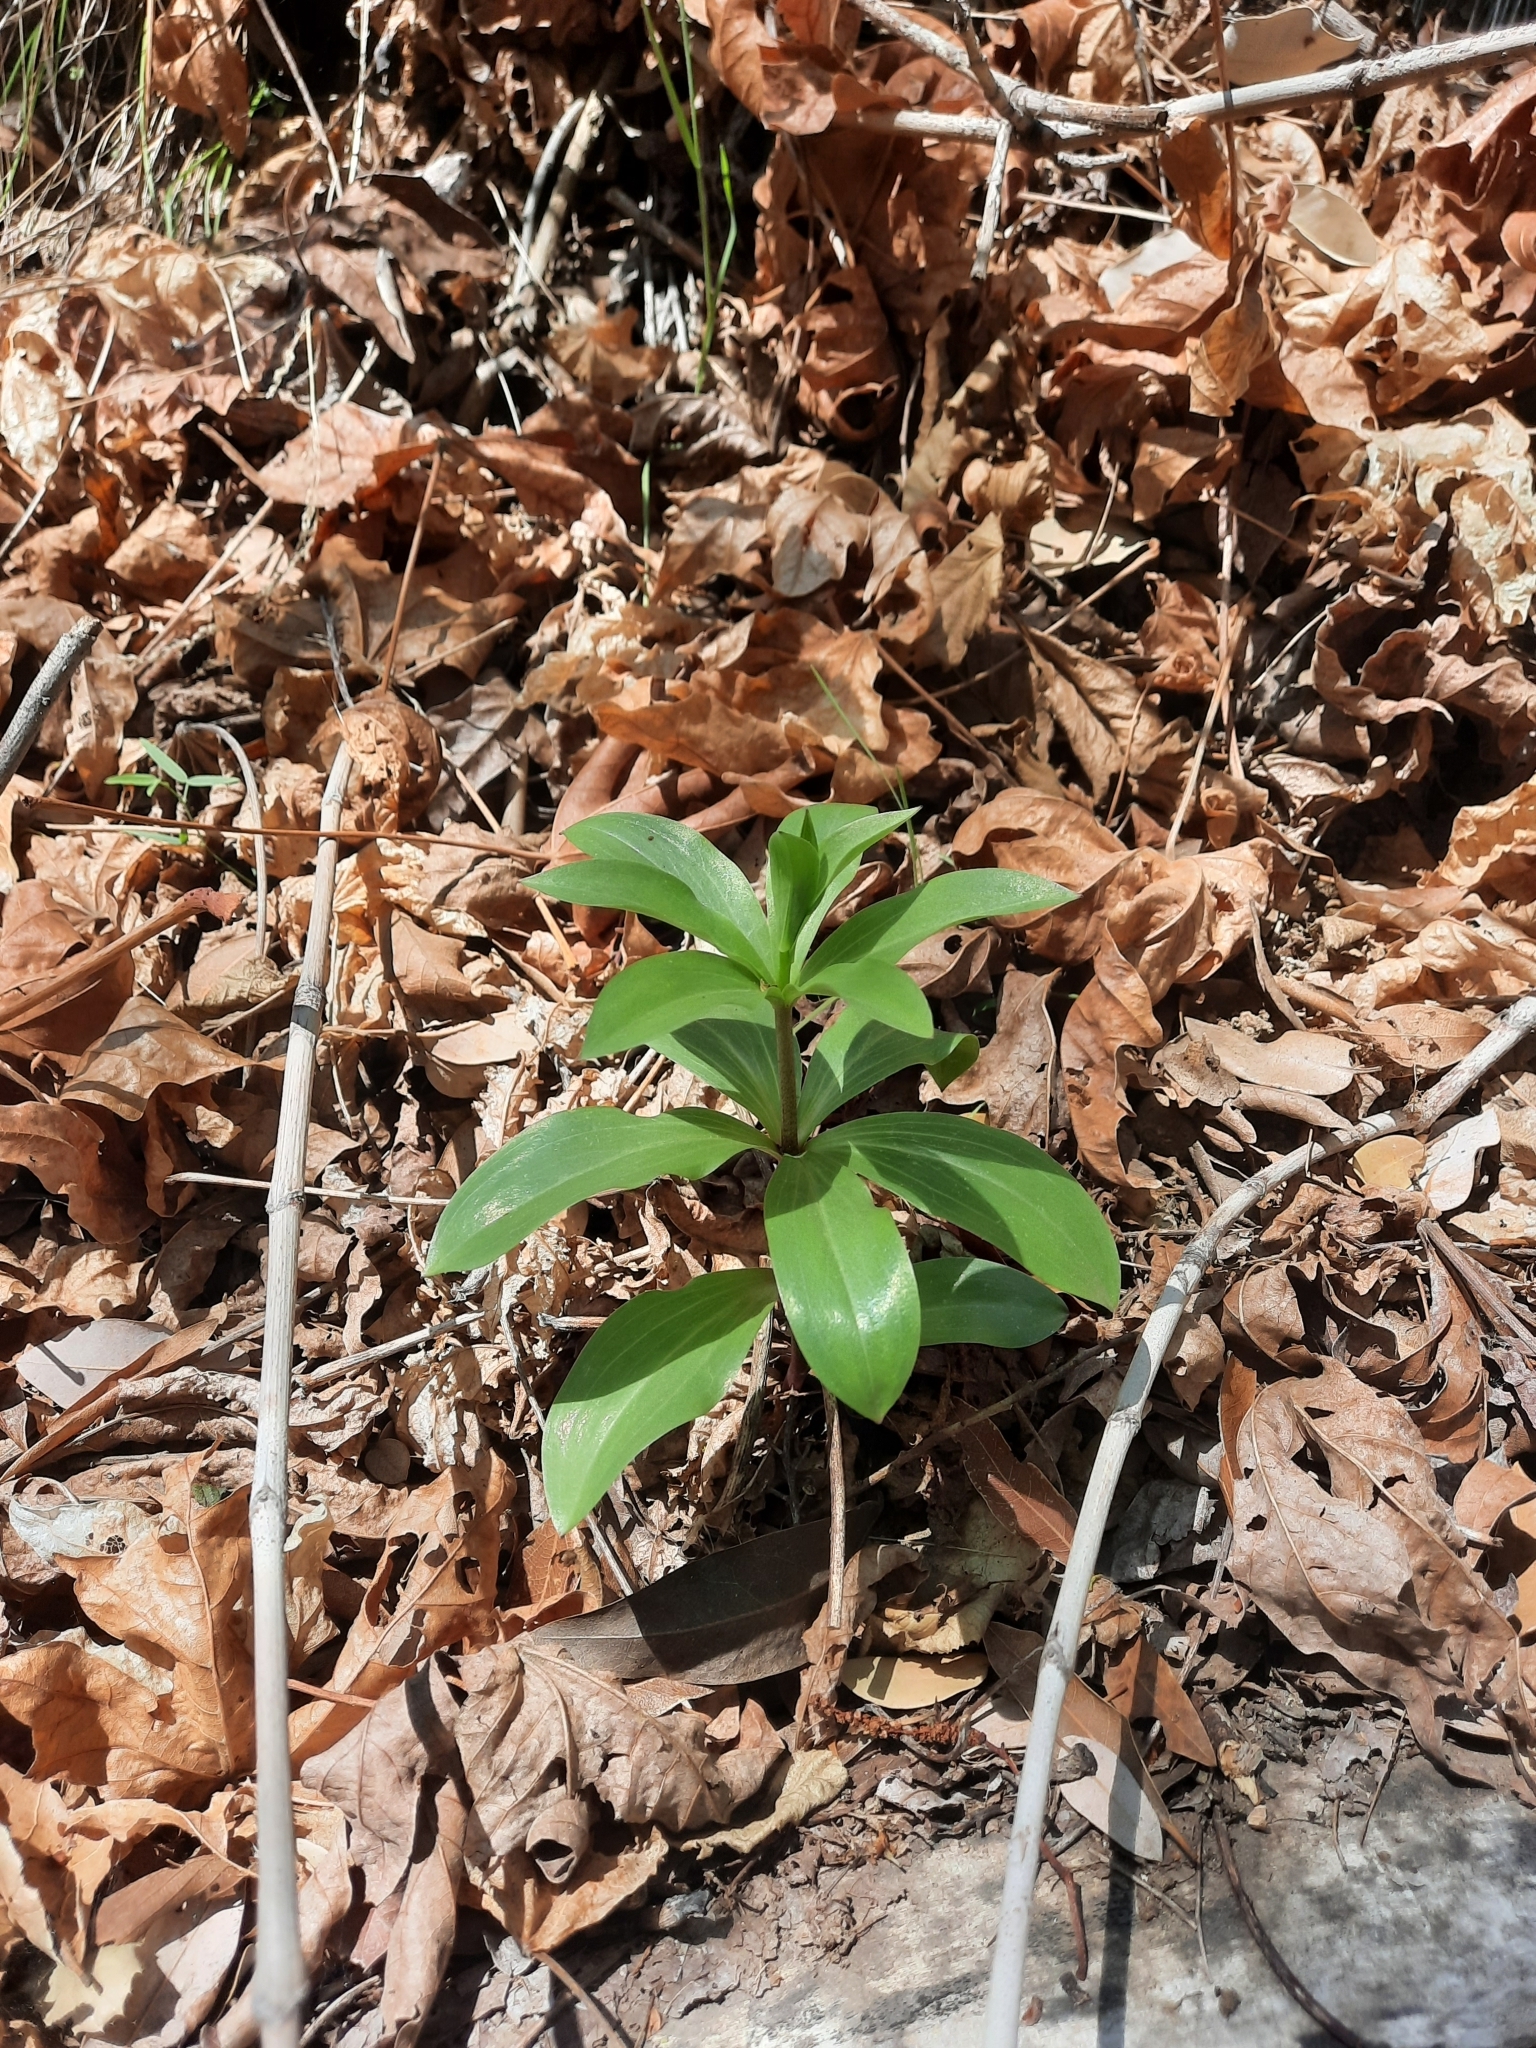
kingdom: Plantae
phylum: Tracheophyta
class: Liliopsida
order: Liliales
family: Liliaceae
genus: Lilium
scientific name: Lilium humboldtii
